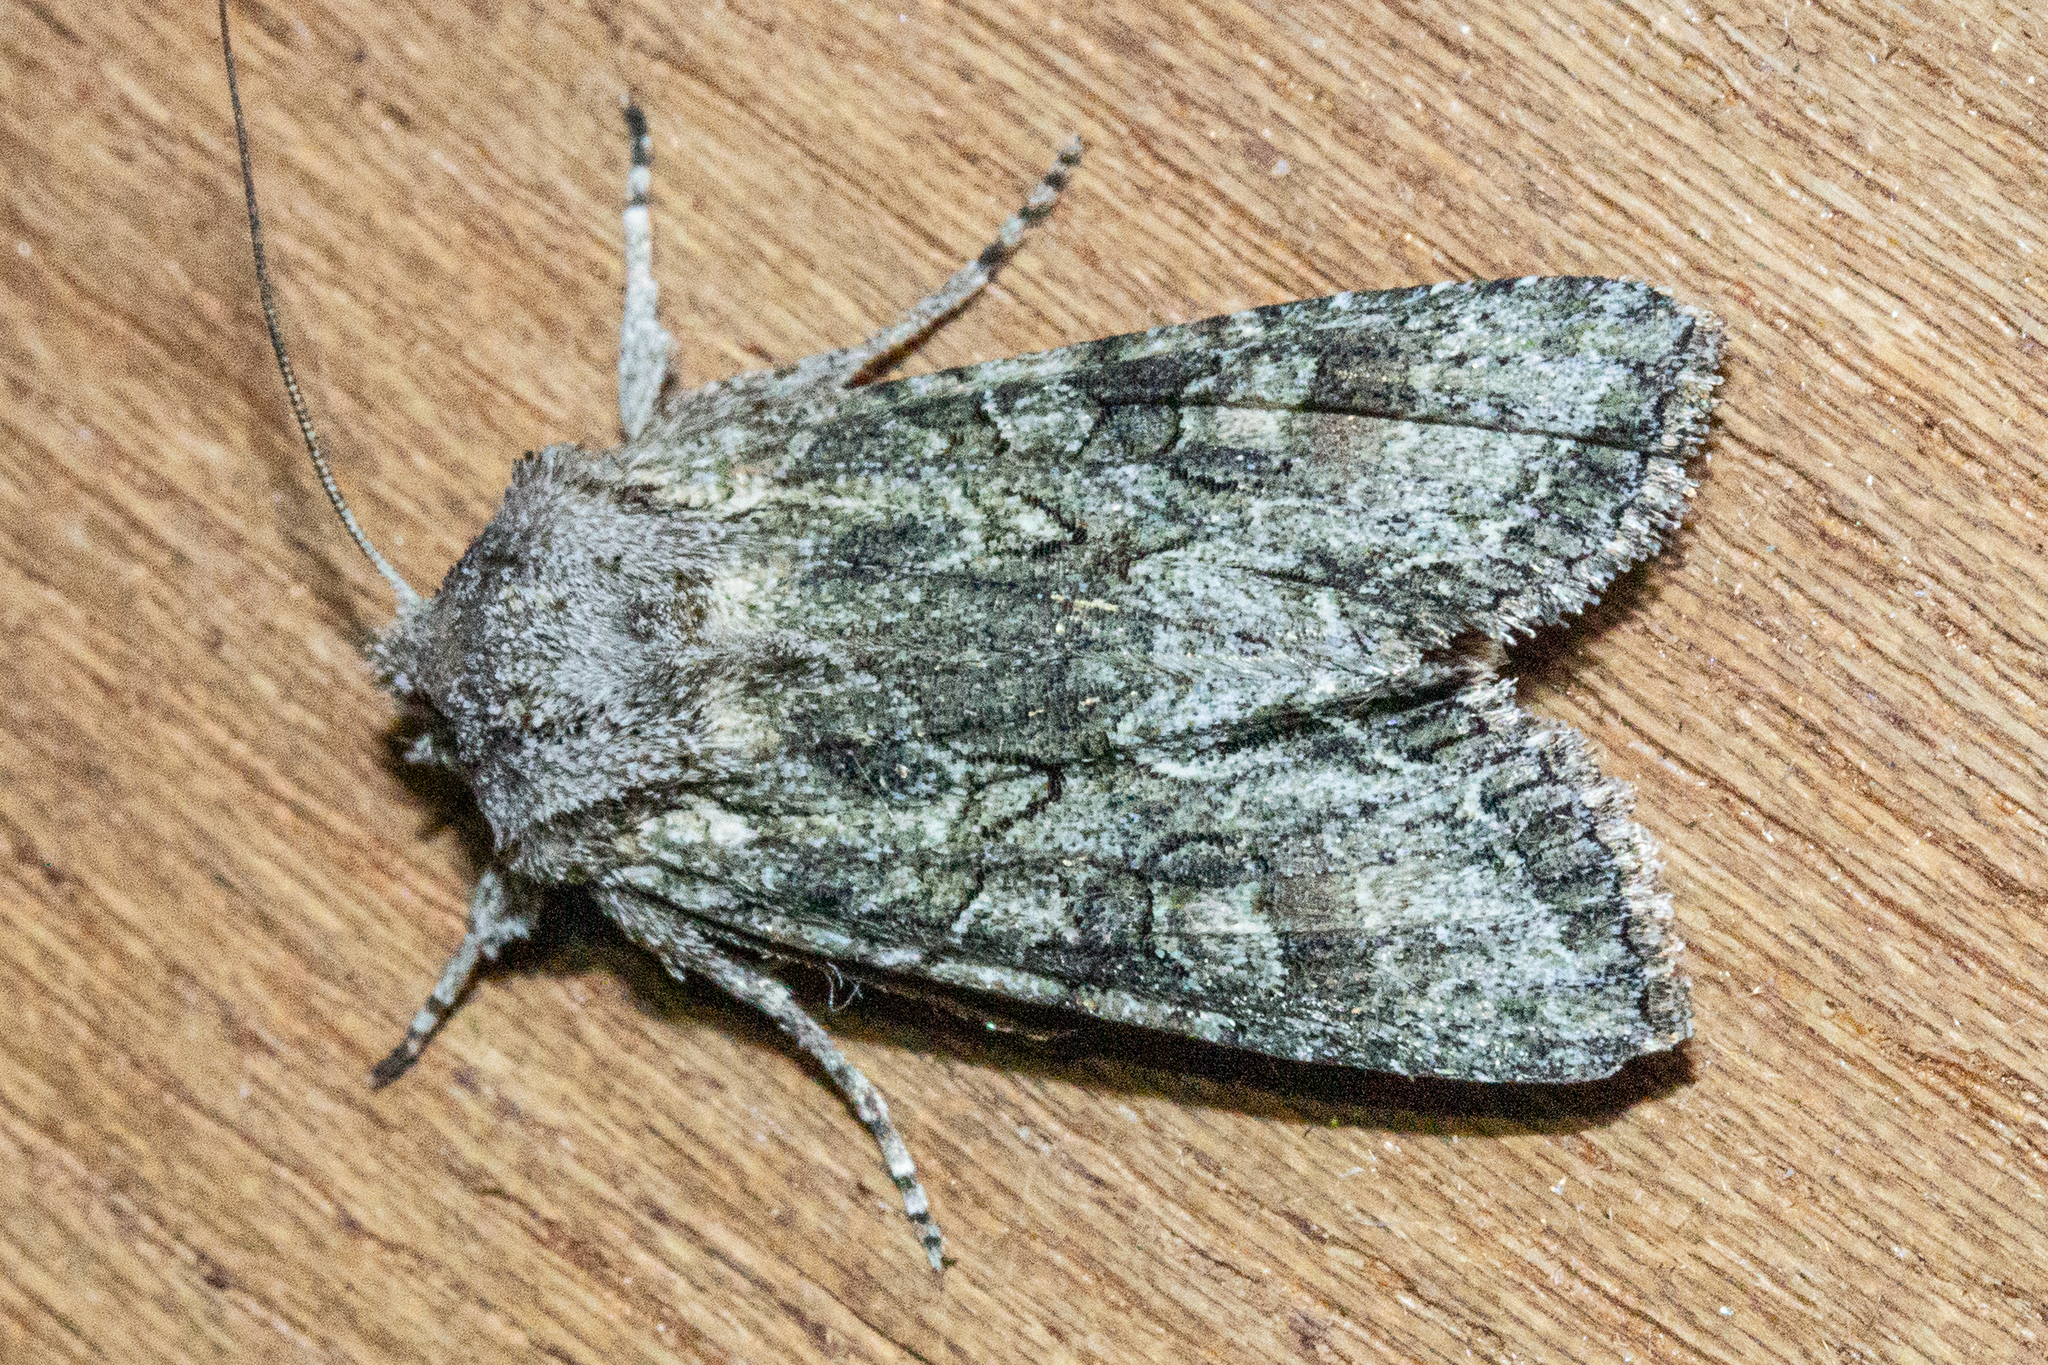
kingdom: Animalia
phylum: Arthropoda
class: Insecta
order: Lepidoptera
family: Noctuidae
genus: Ichneutica
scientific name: Ichneutica mutans
